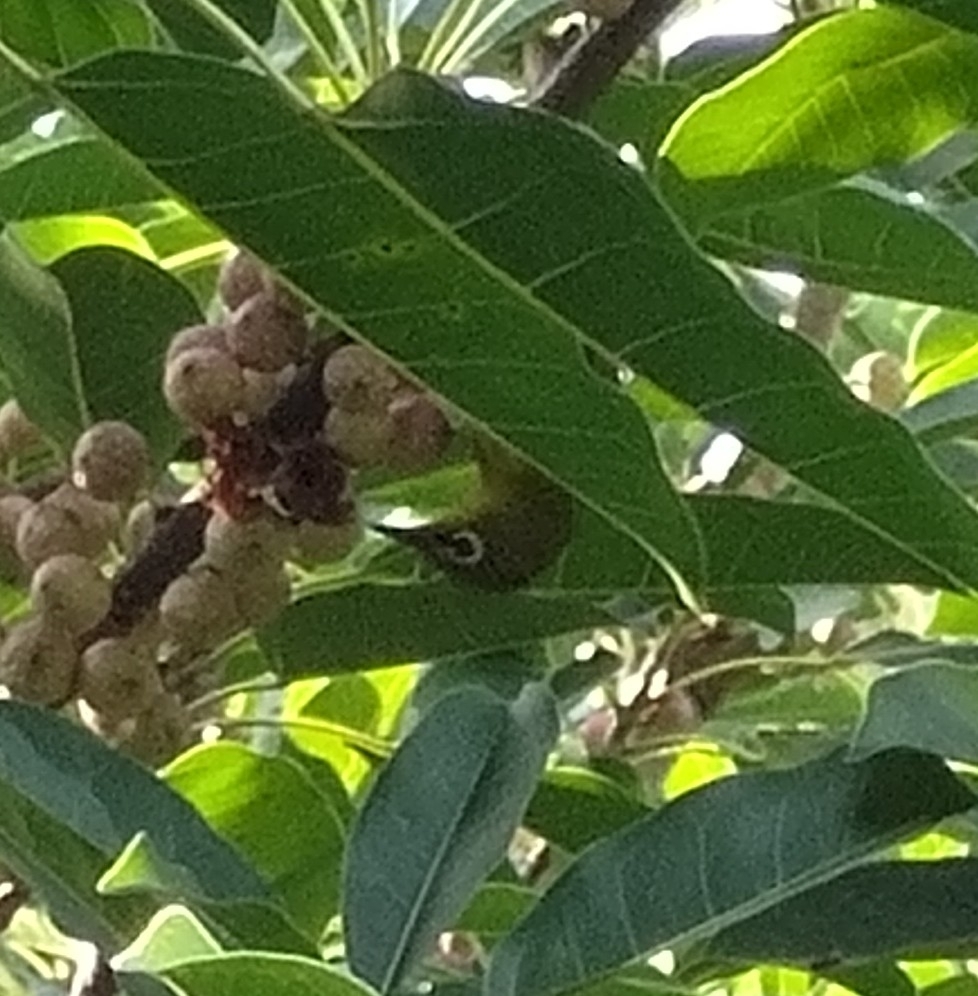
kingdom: Animalia
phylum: Chordata
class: Aves
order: Passeriformes
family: Zosteropidae
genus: Zosterops
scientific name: Zosterops simplex
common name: Swinhoe's white-eye
